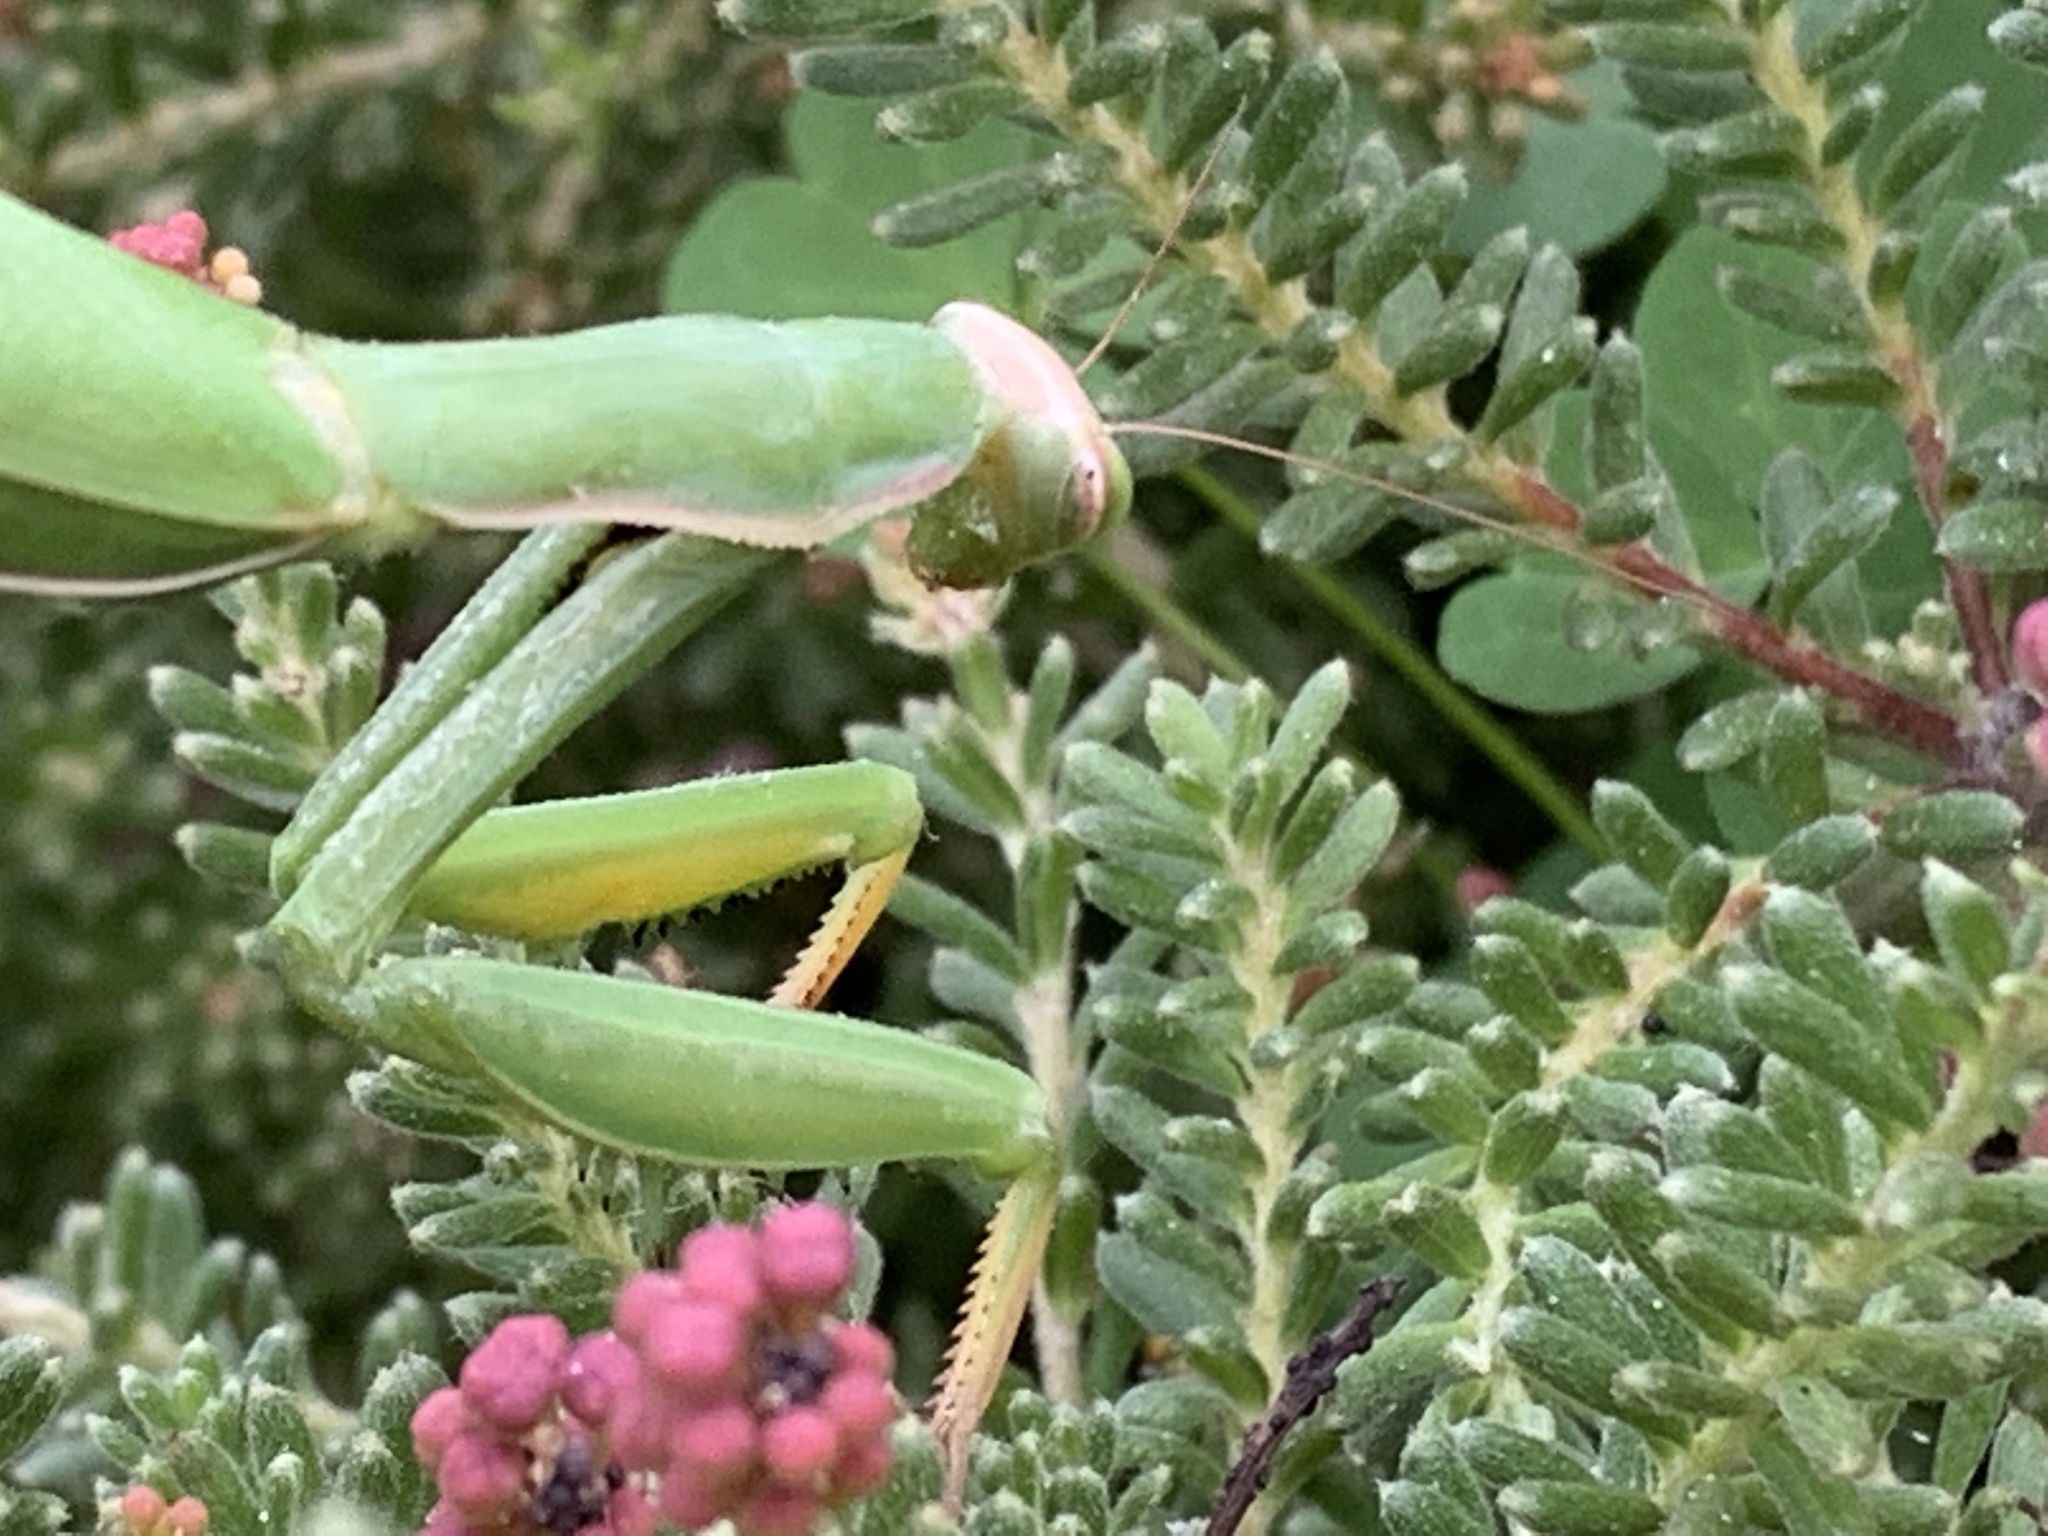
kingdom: Animalia
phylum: Arthropoda
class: Insecta
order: Mantodea
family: Mantidae
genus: Mantis
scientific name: Mantis religiosa
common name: Praying mantis
